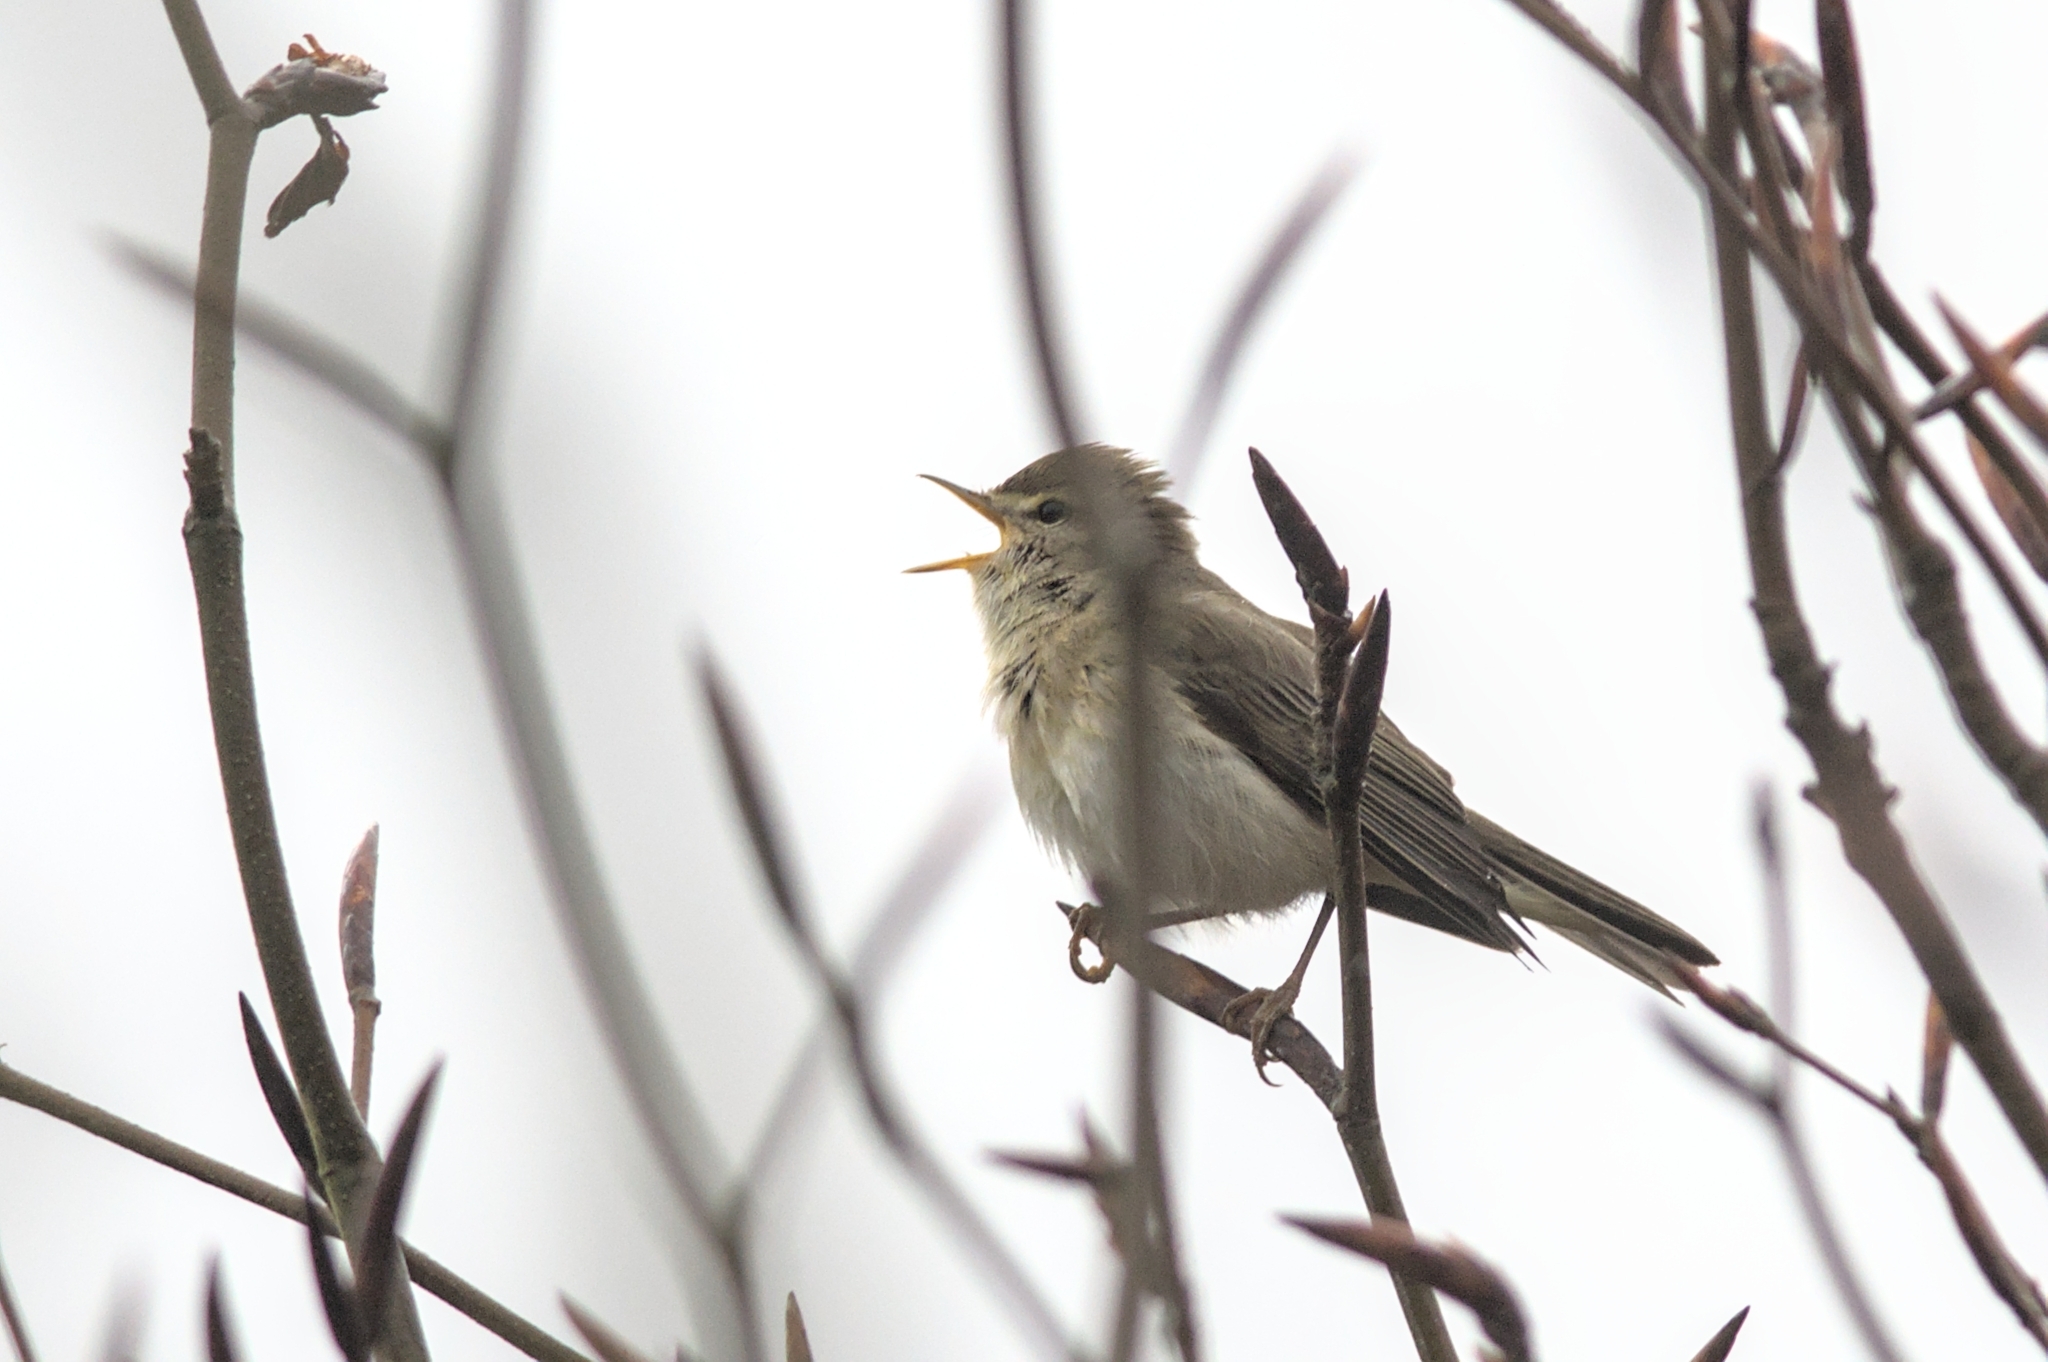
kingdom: Animalia
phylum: Chordata
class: Aves
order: Passeriformes
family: Phylloscopidae
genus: Phylloscopus
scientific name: Phylloscopus trochilus
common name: Willow warbler
